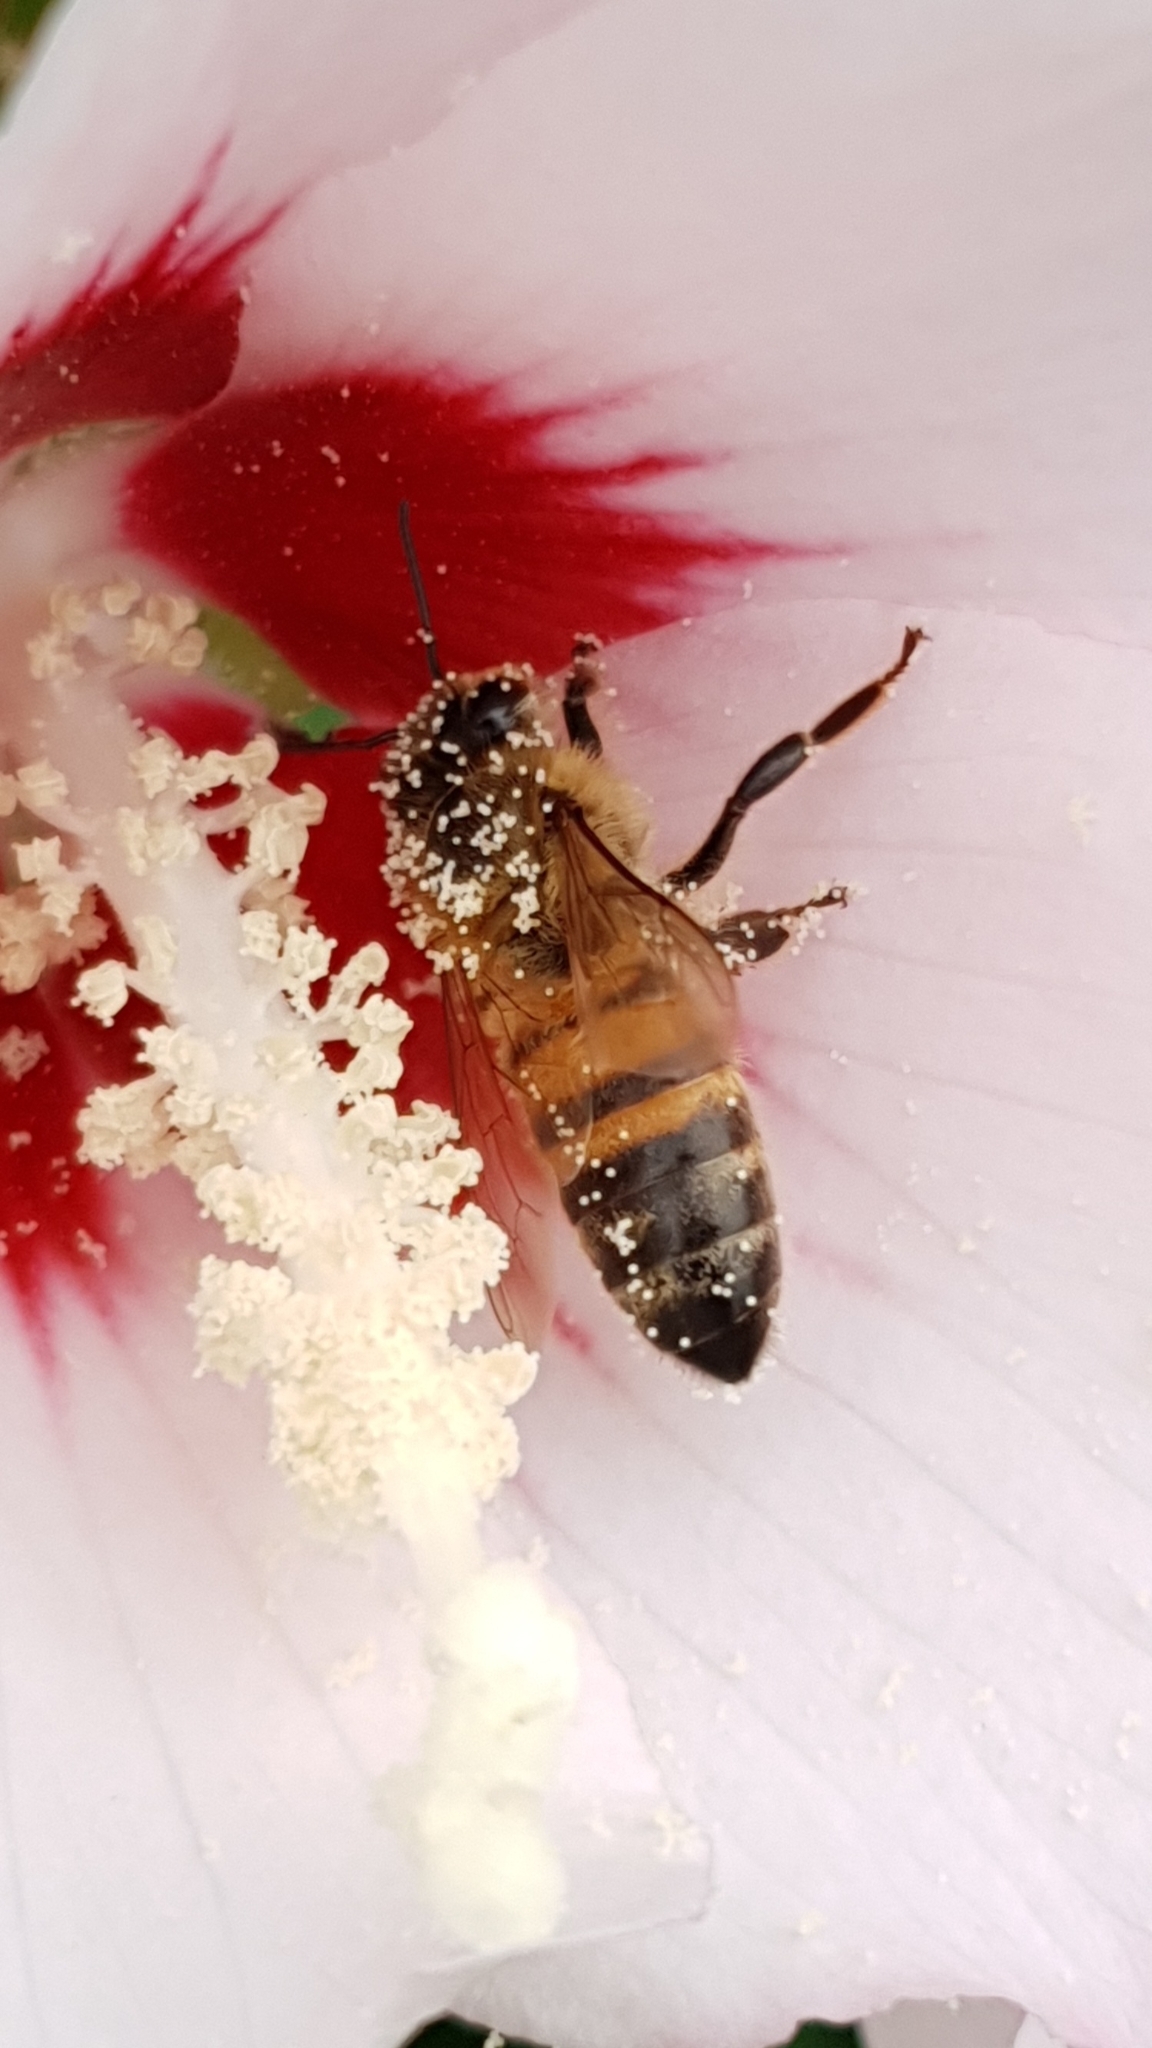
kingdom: Animalia
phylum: Arthropoda
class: Insecta
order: Hymenoptera
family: Apidae
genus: Apis
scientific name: Apis mellifera
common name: Honey bee
